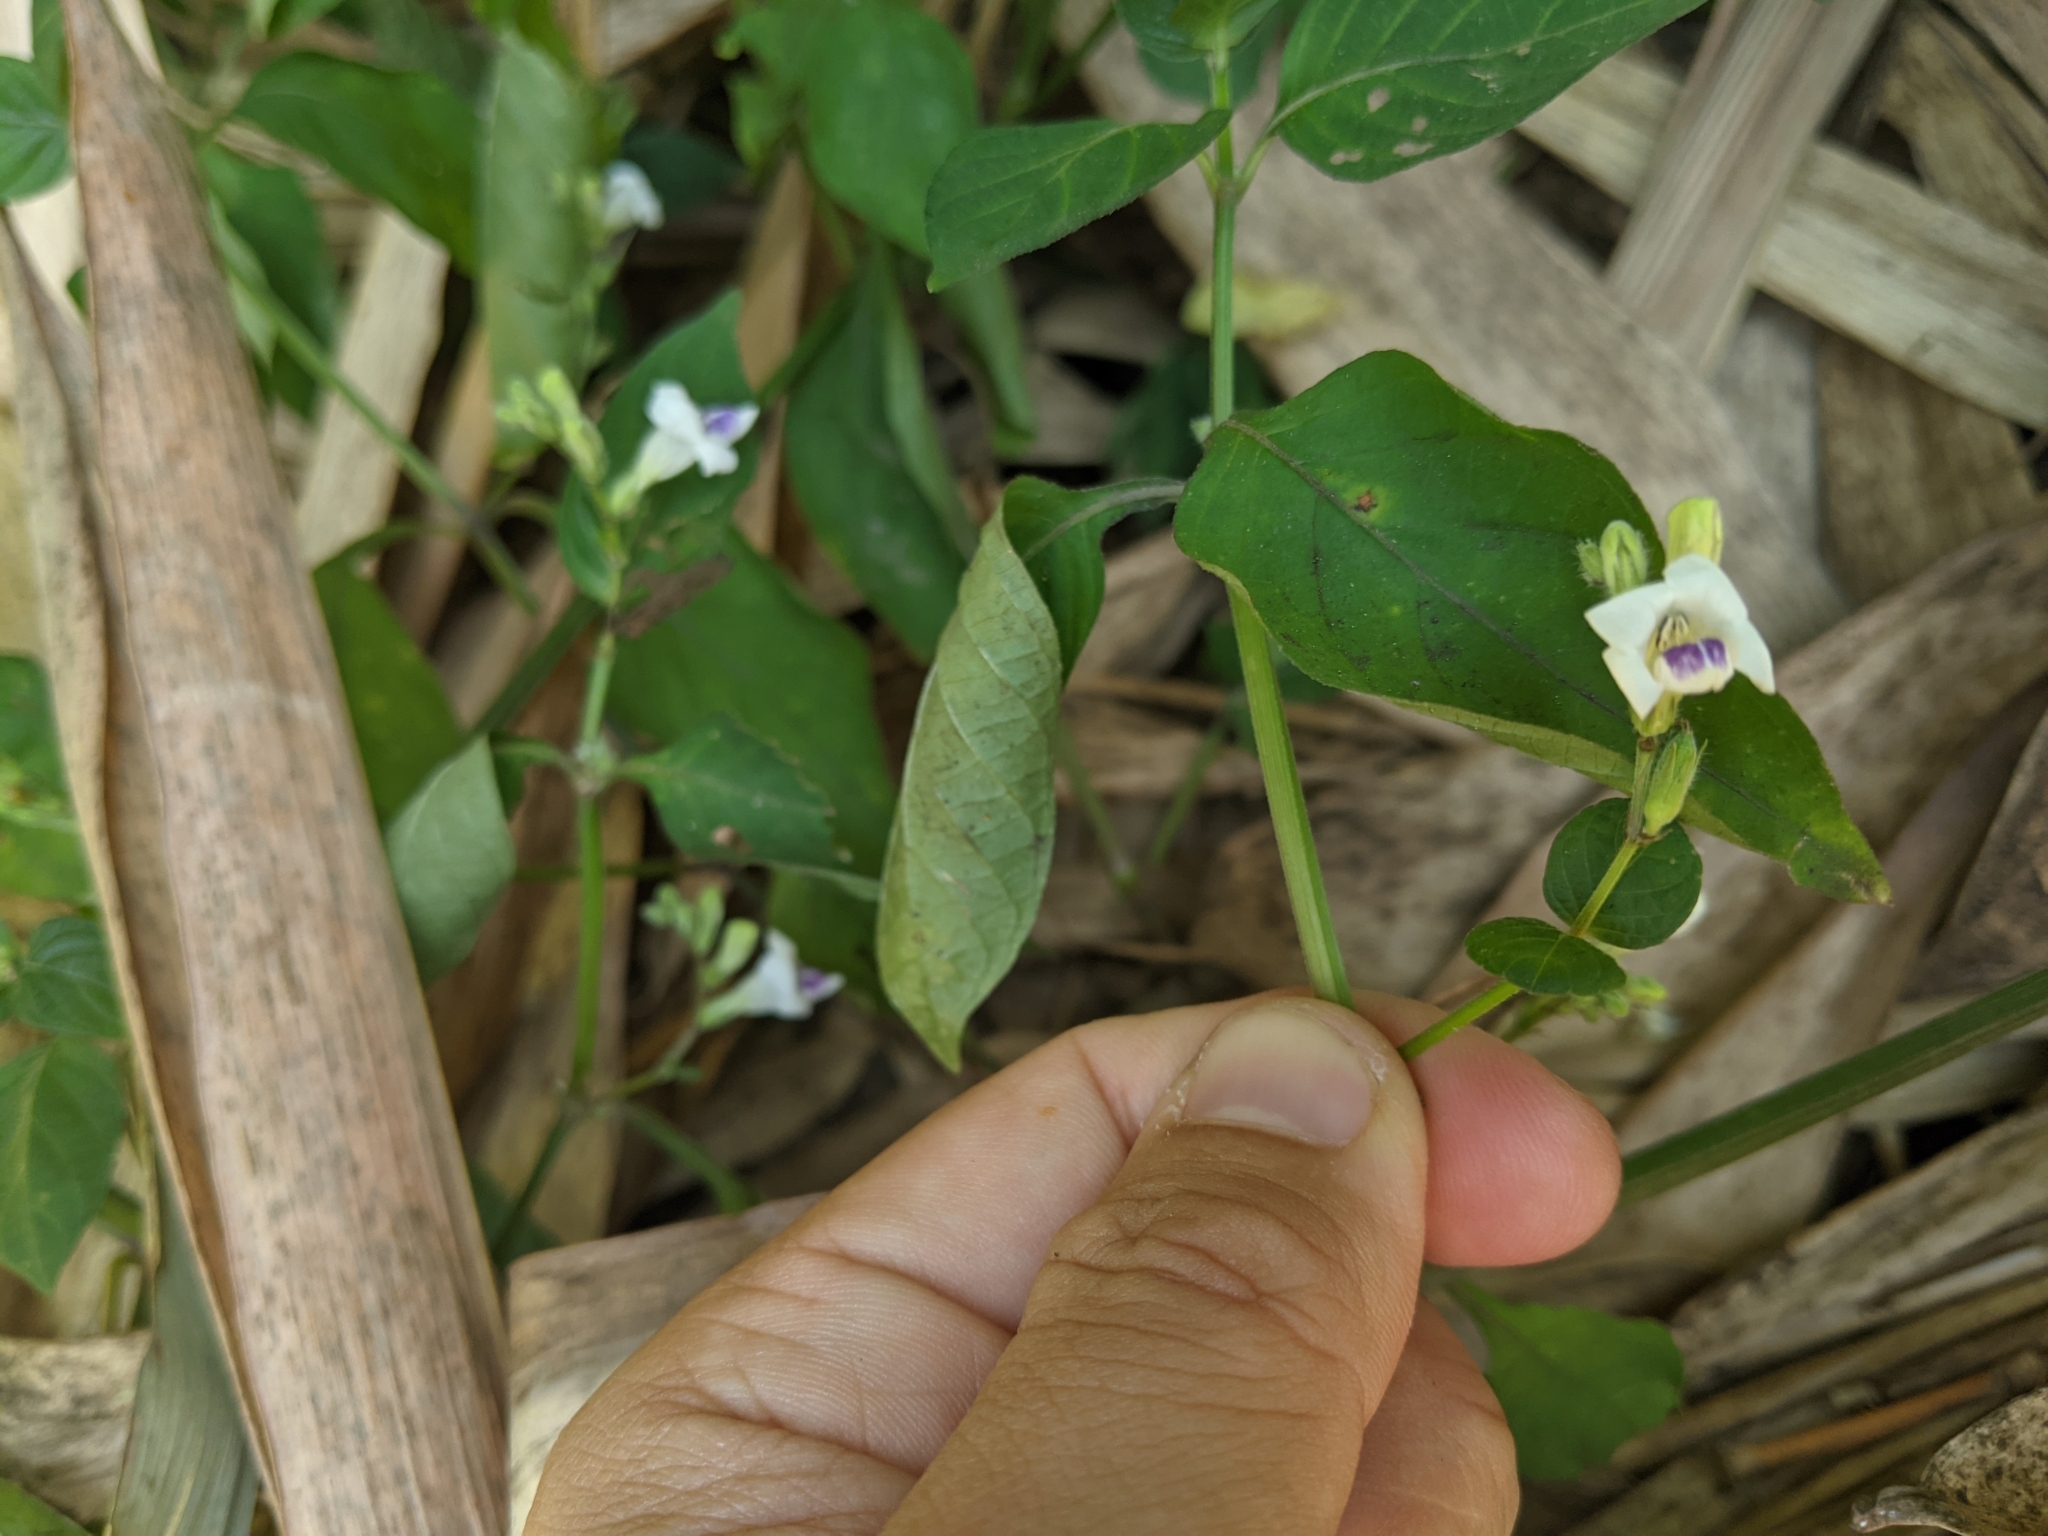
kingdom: Plantae
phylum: Tracheophyta
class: Magnoliopsida
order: Lamiales
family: Acanthaceae
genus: Asystasia
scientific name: Asystasia intrusa
